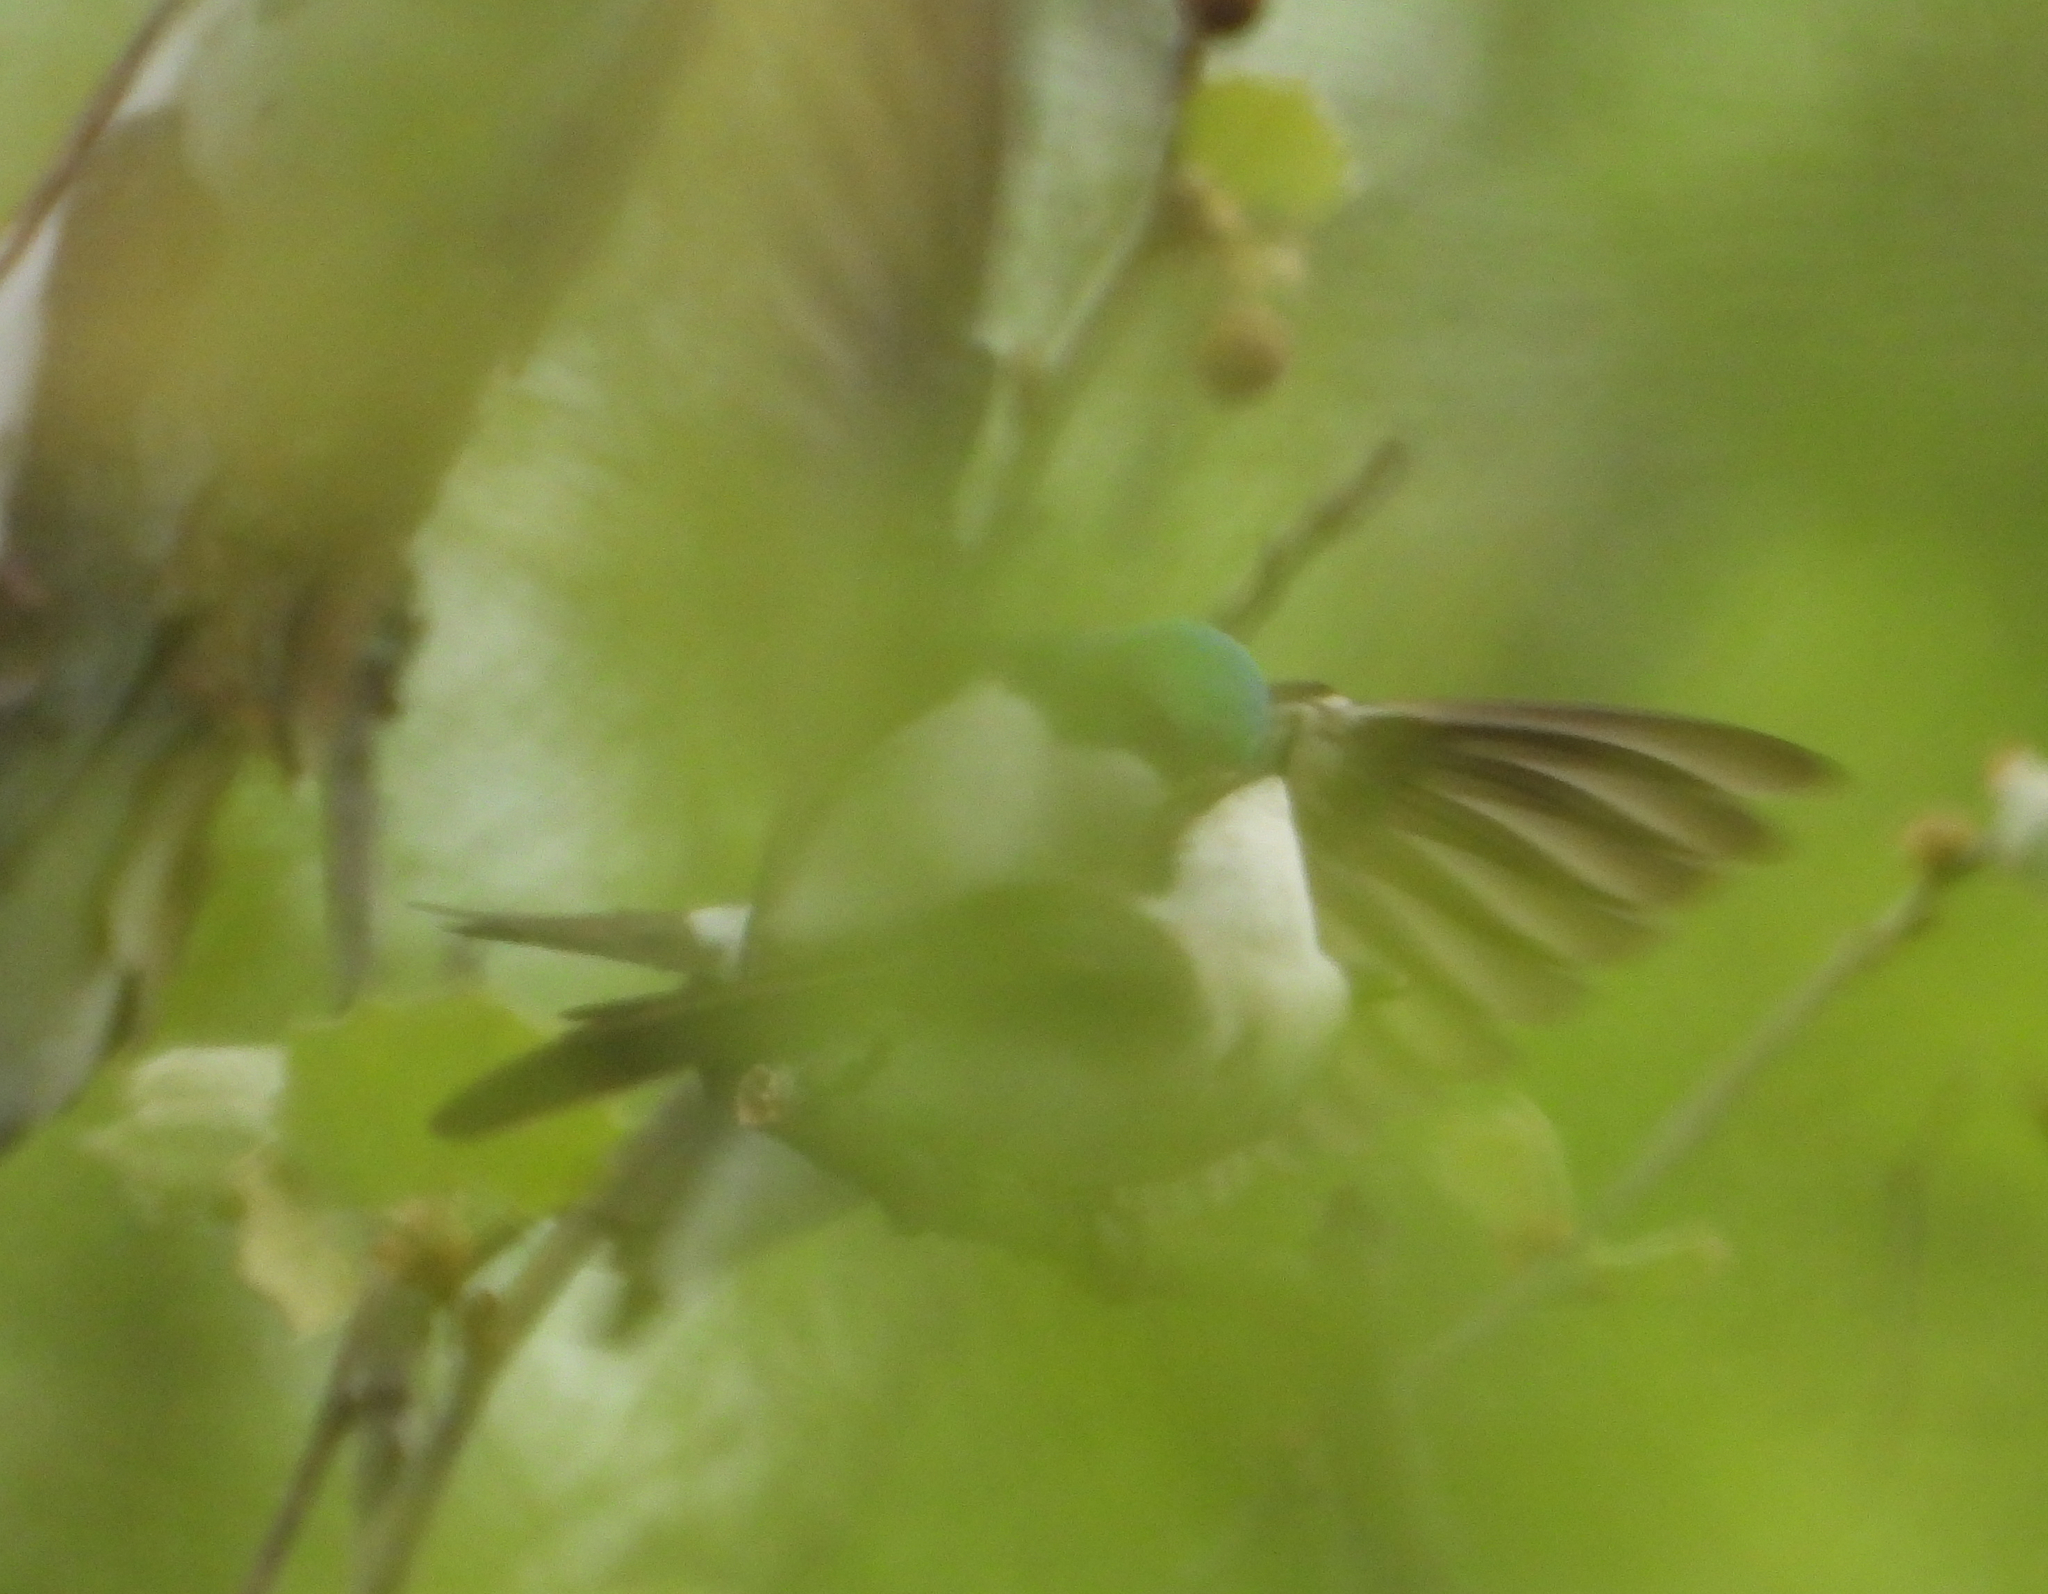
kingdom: Animalia
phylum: Chordata
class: Aves
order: Passeriformes
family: Hirundinidae
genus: Tachycineta
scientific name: Tachycineta bicolor
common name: Tree swallow
